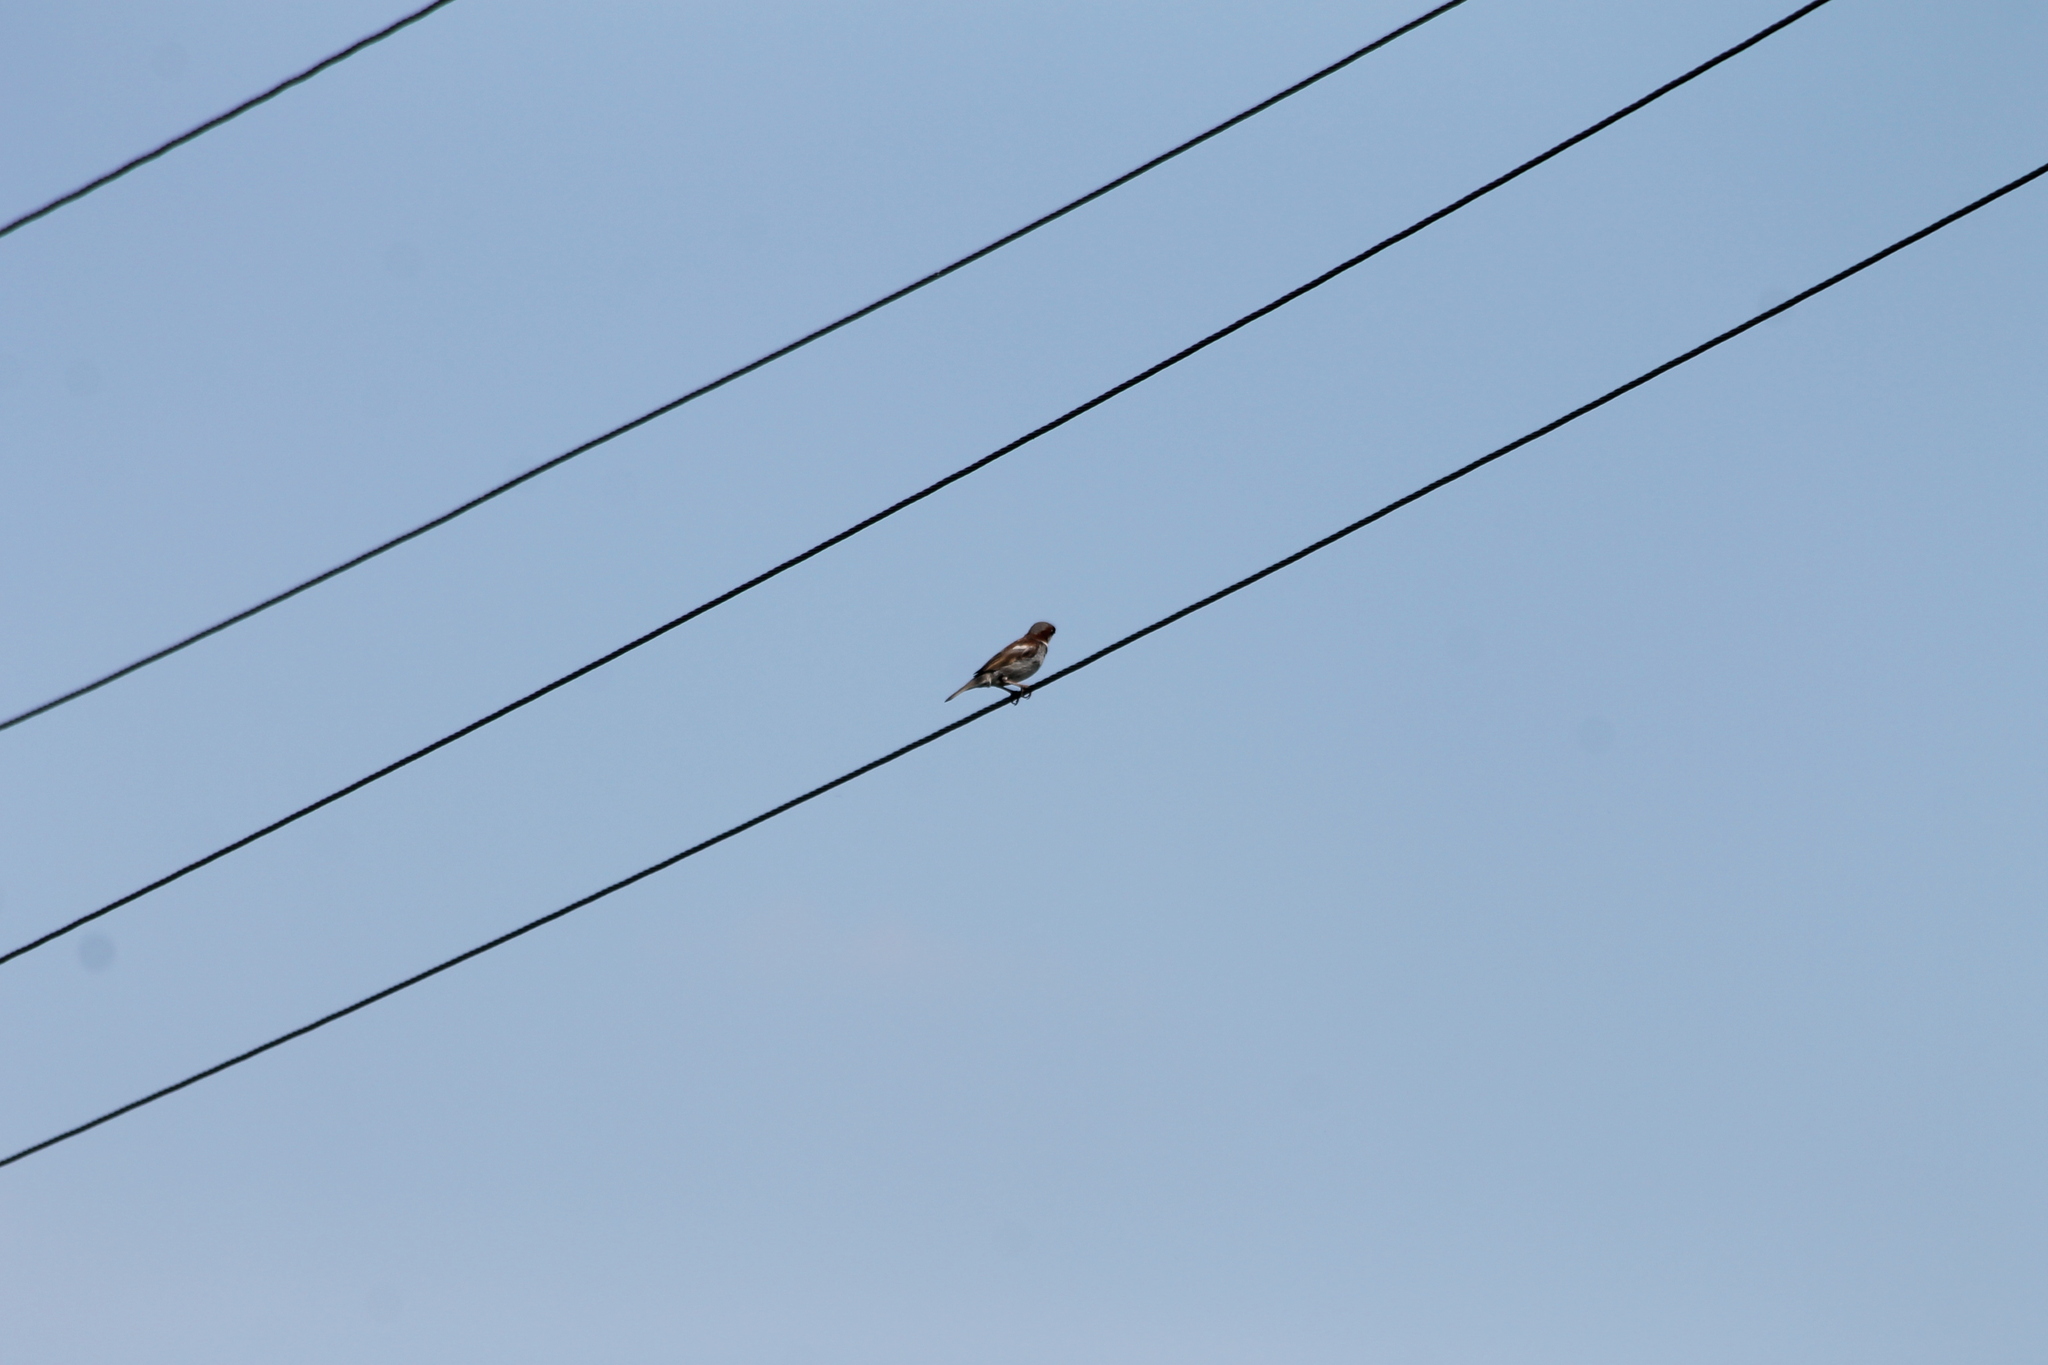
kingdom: Animalia
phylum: Chordata
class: Aves
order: Passeriformes
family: Passeridae
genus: Passer
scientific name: Passer domesticus
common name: House sparrow
